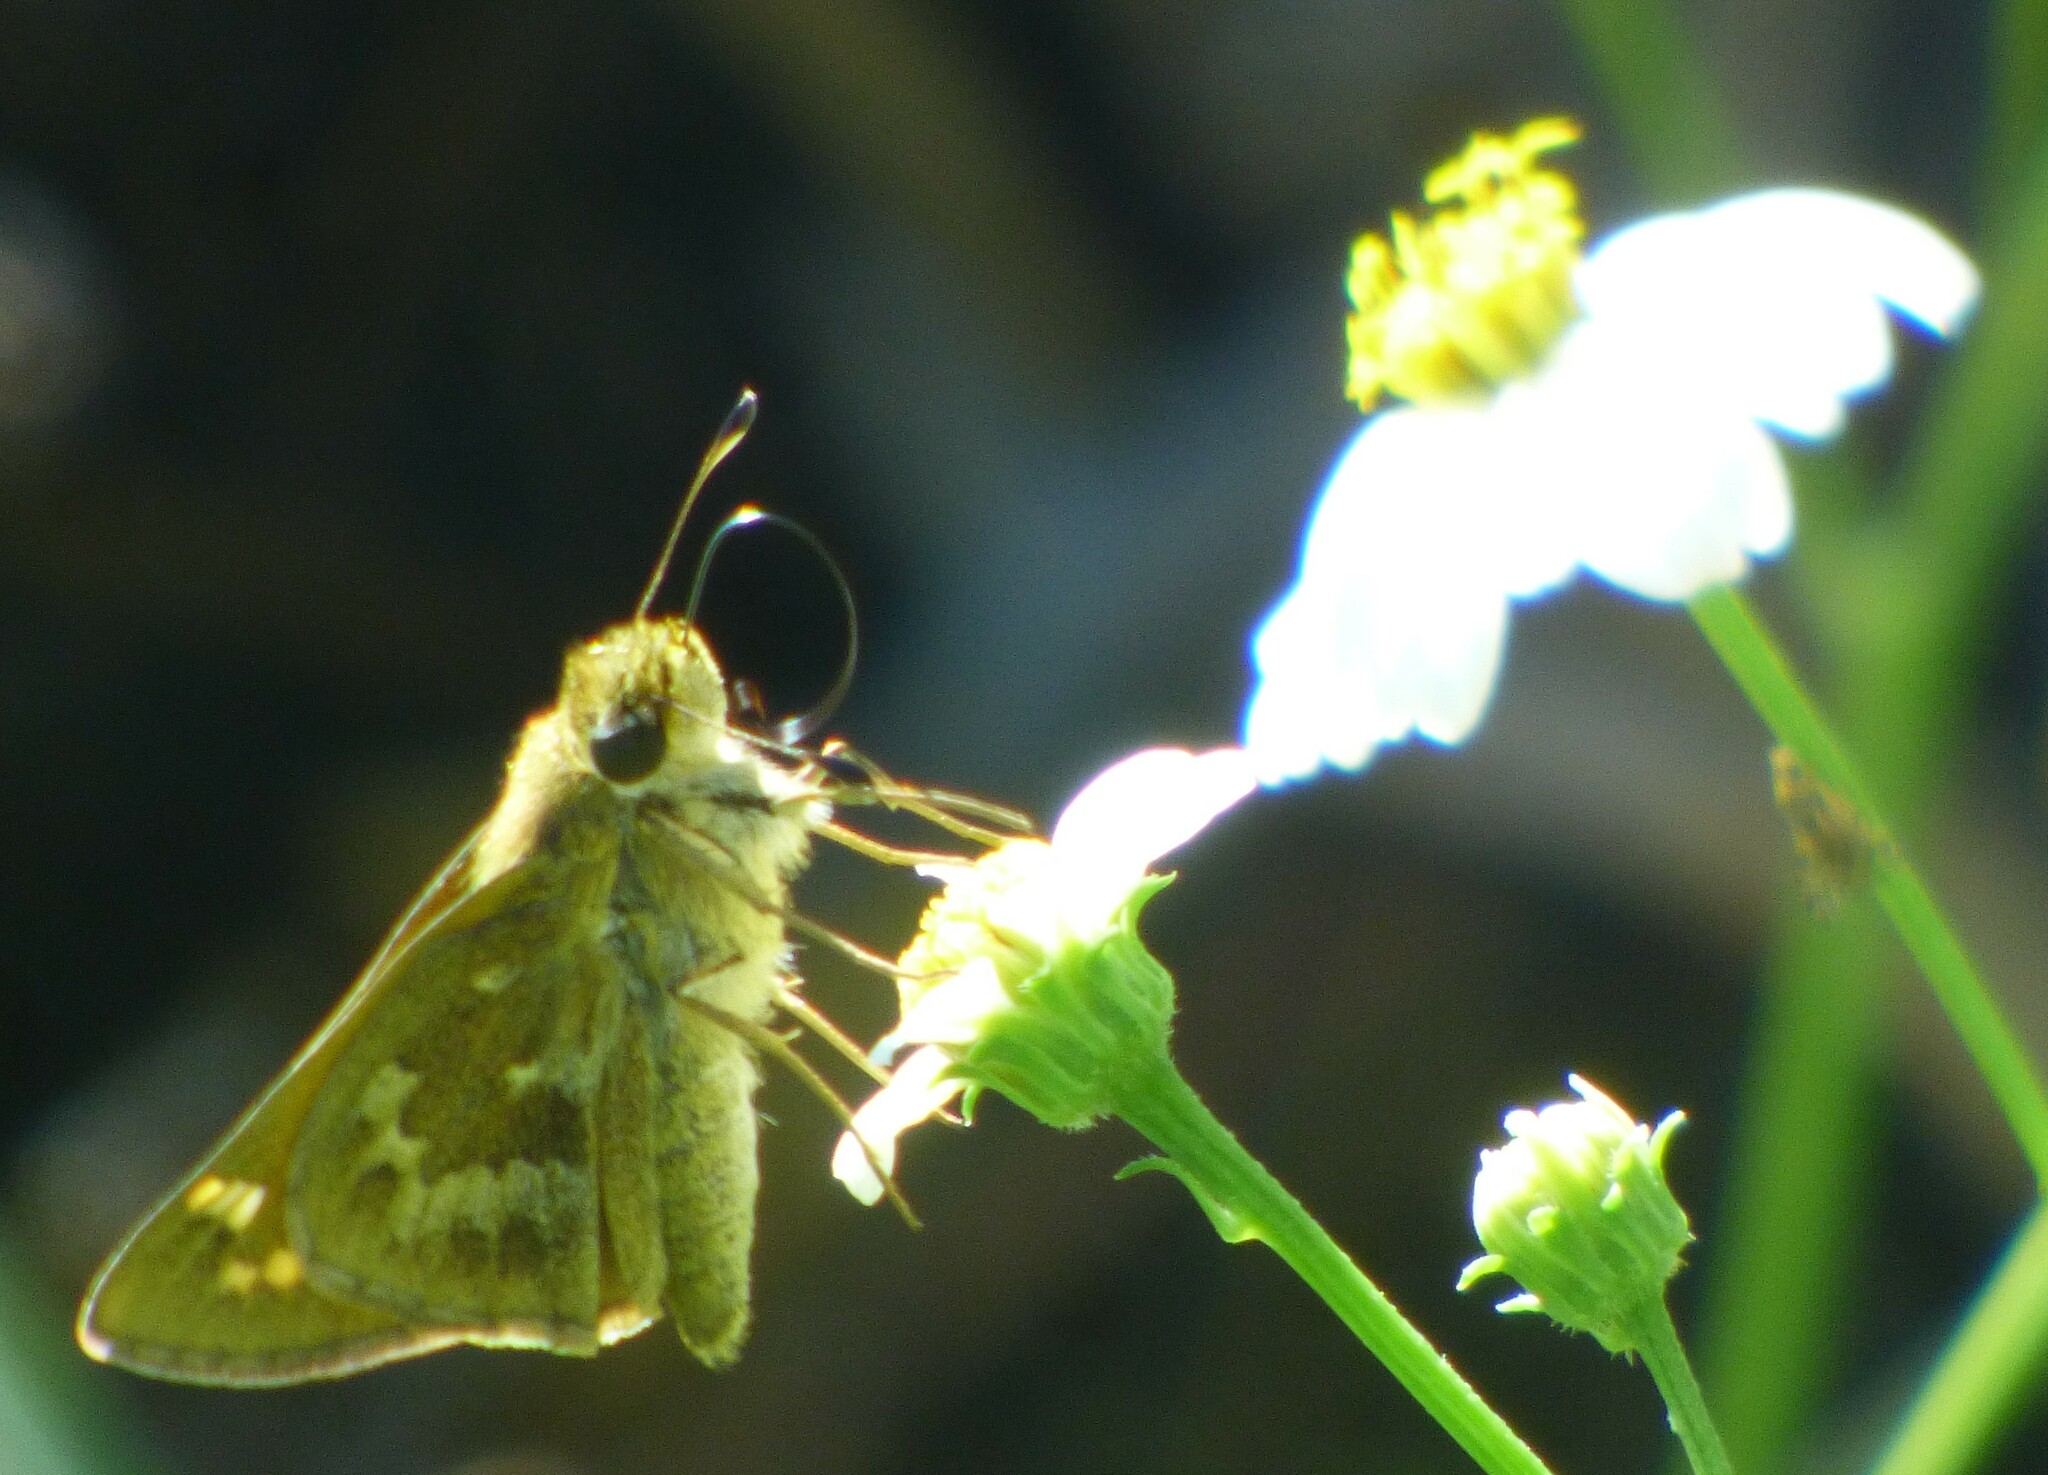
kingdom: Animalia
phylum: Arthropoda
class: Insecta
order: Lepidoptera
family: Hesperiidae
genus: Atalopedes
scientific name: Atalopedes
